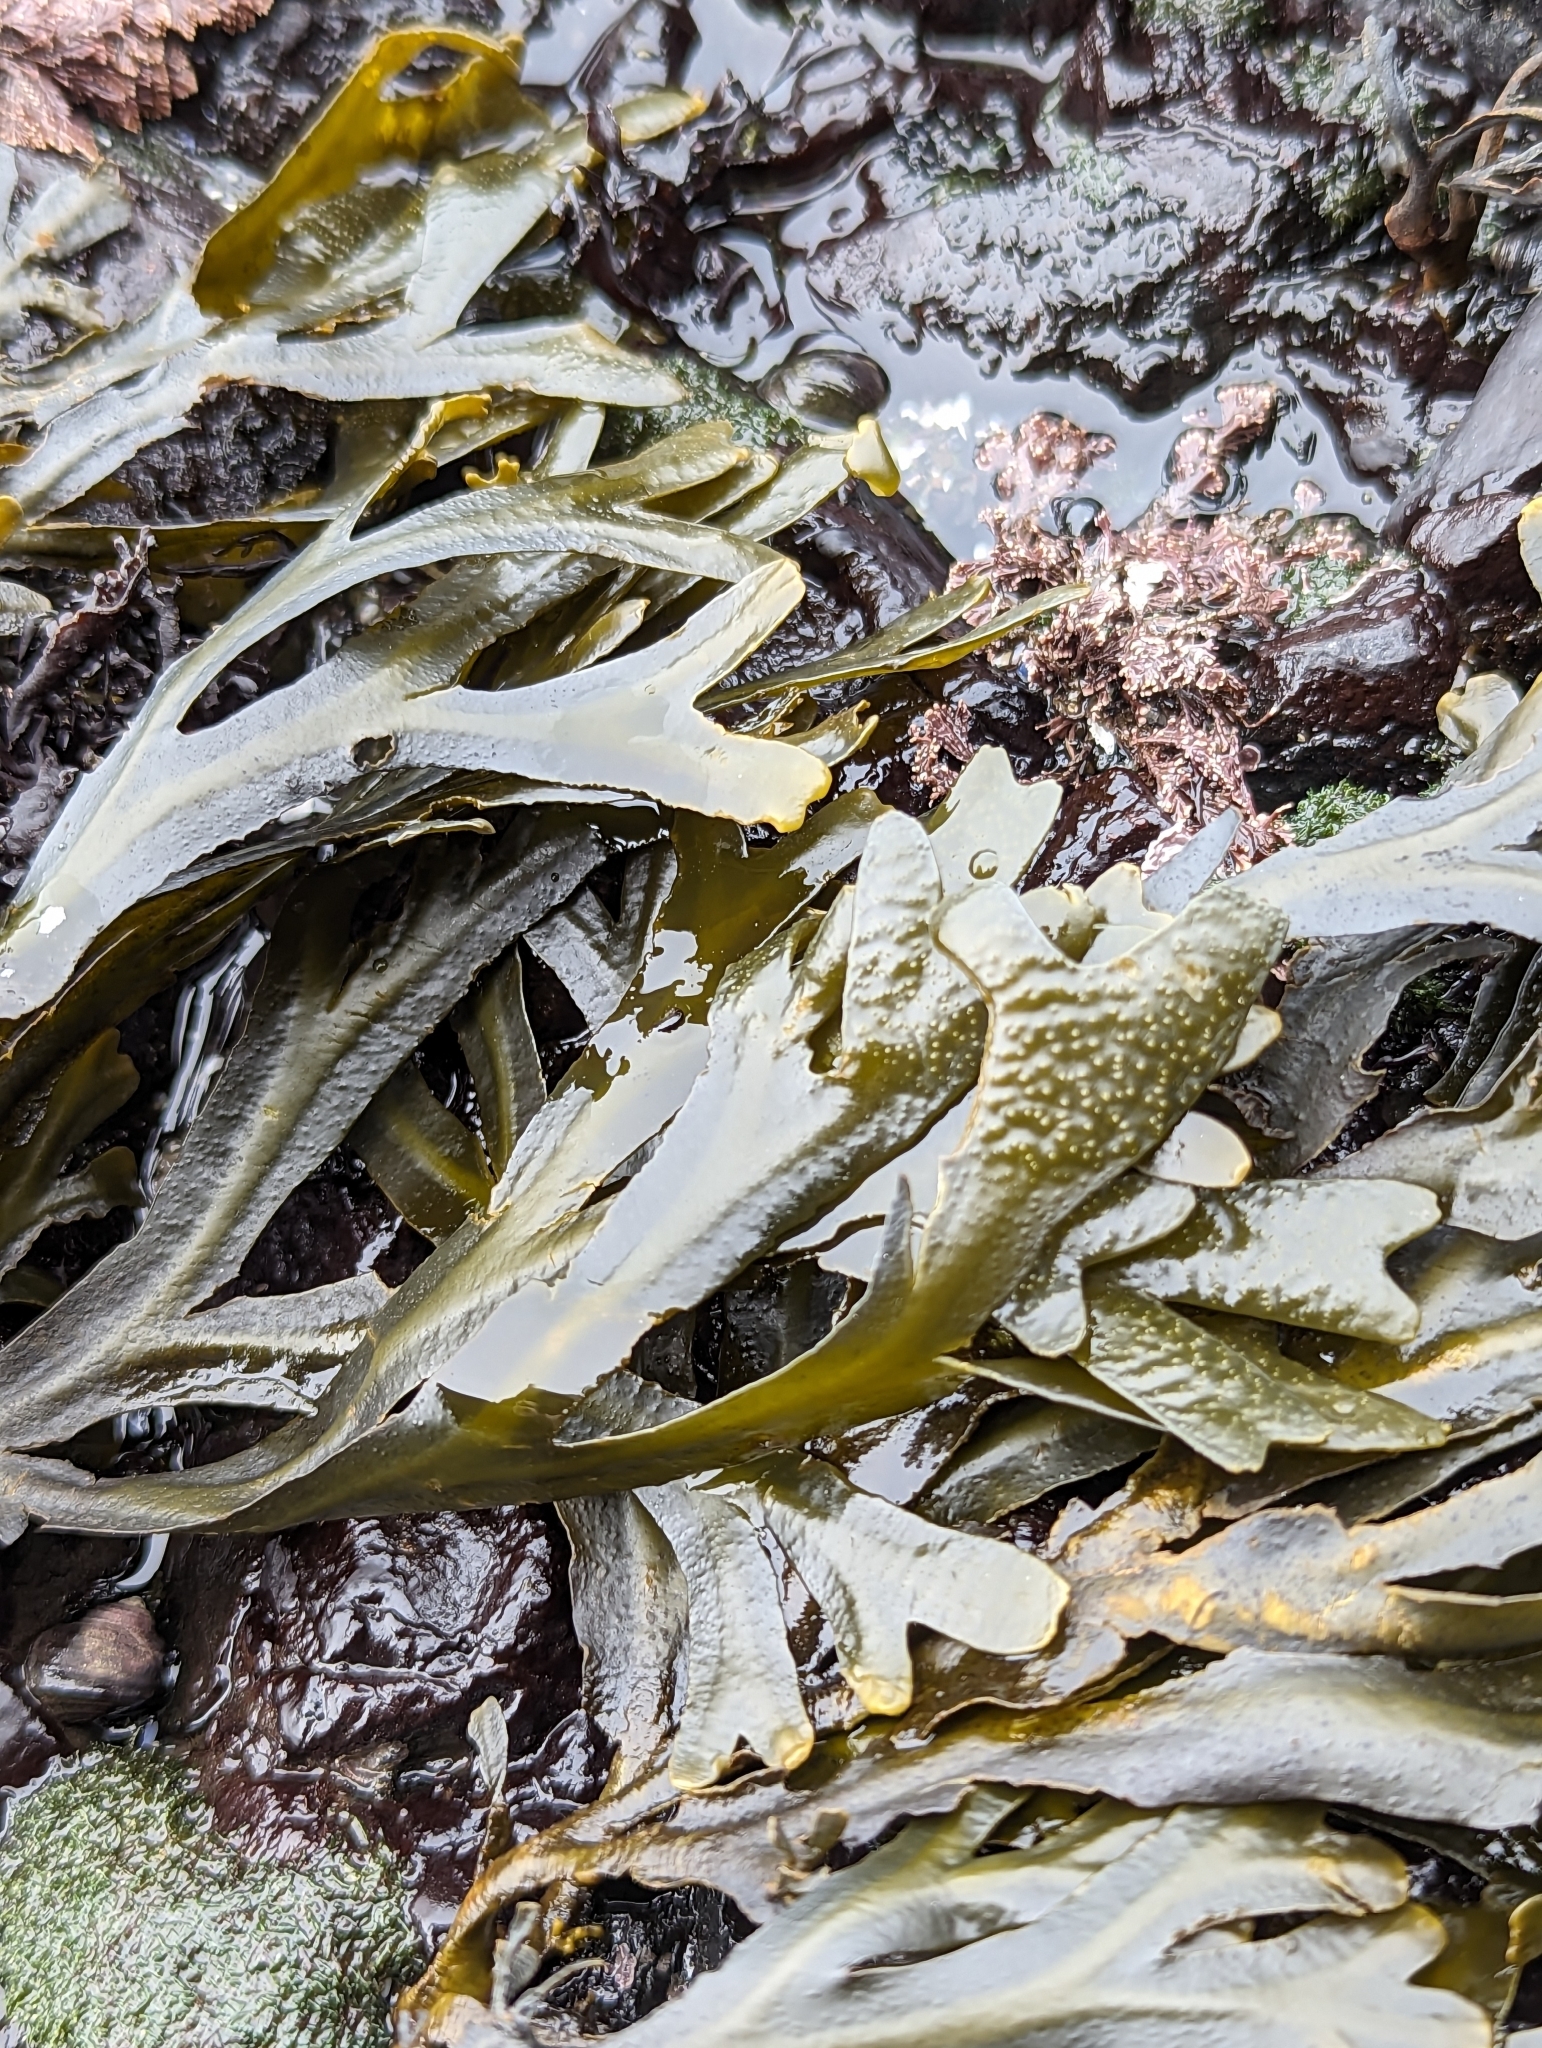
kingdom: Chromista
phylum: Ochrophyta
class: Phaeophyceae
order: Fucales
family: Fucaceae
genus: Fucus
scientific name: Fucus distichus
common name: Rockweed
